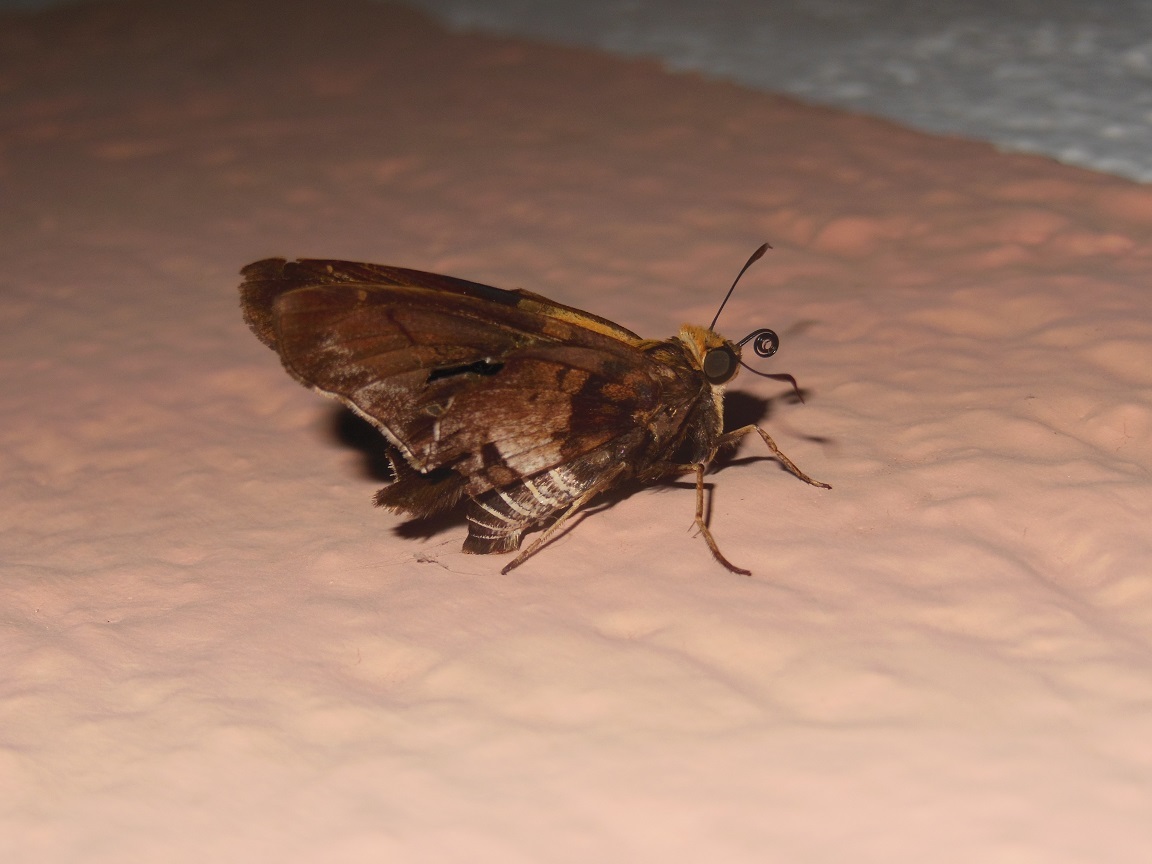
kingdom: Animalia
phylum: Arthropoda
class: Insecta
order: Lepidoptera
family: Hesperiidae
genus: Proteides
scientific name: Proteides mercurius
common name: Mercurial skipper
